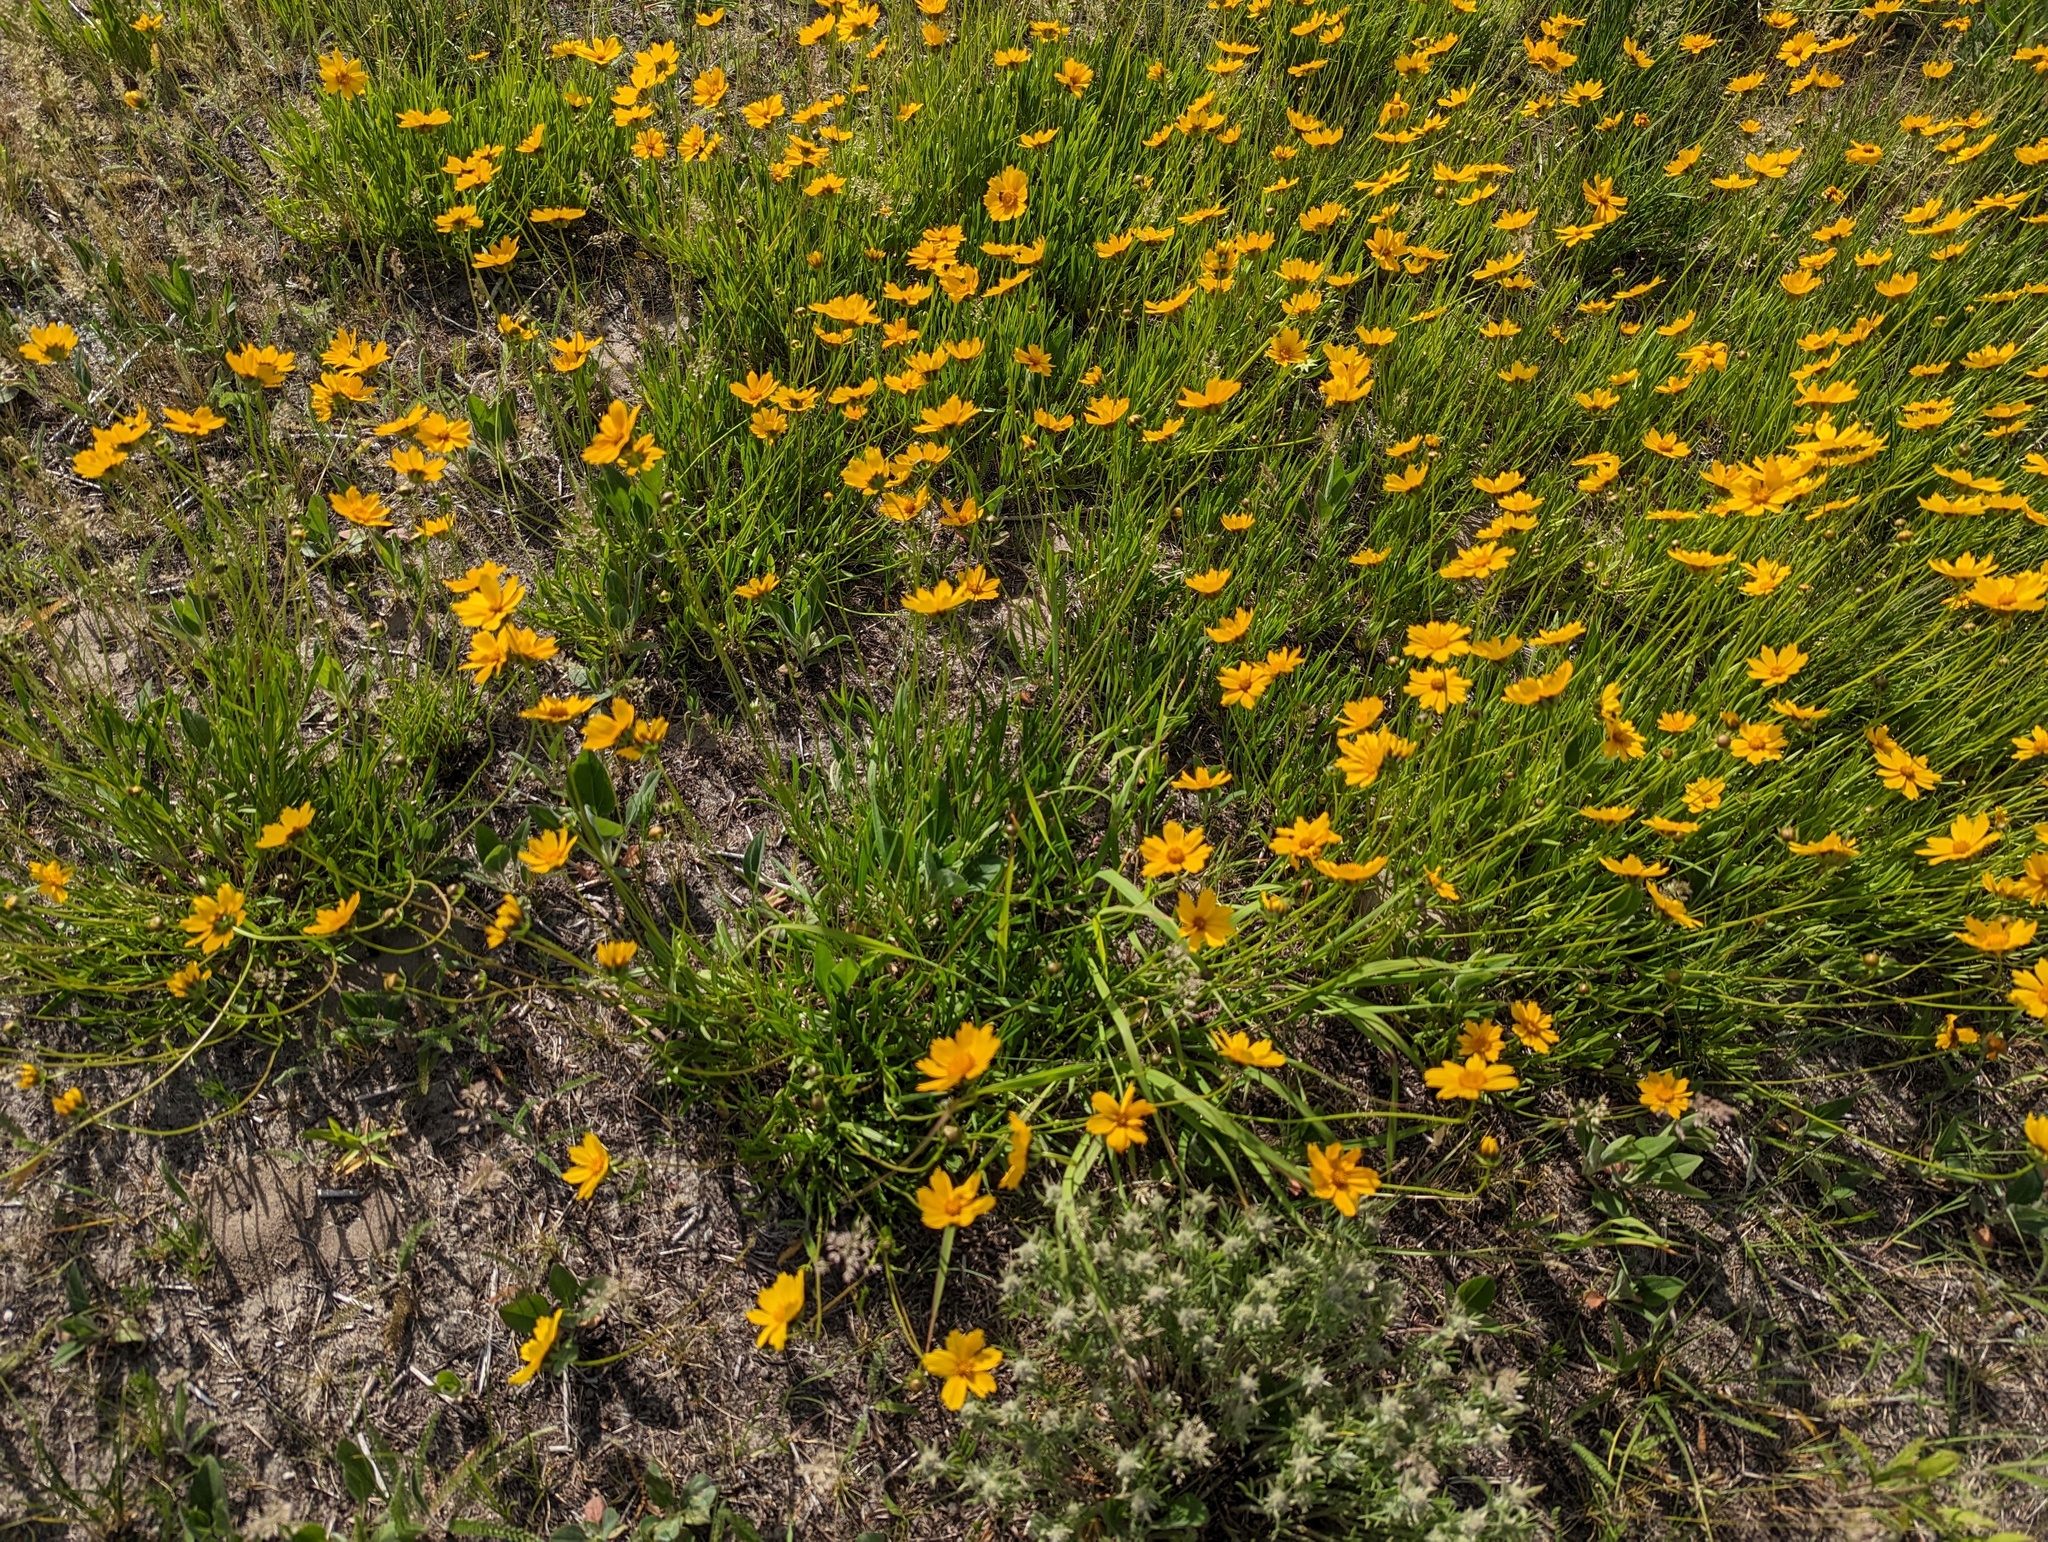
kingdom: Plantae
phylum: Tracheophyta
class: Magnoliopsida
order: Asterales
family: Asteraceae
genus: Coreopsis
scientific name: Coreopsis lanceolata
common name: Garden coreopsis
